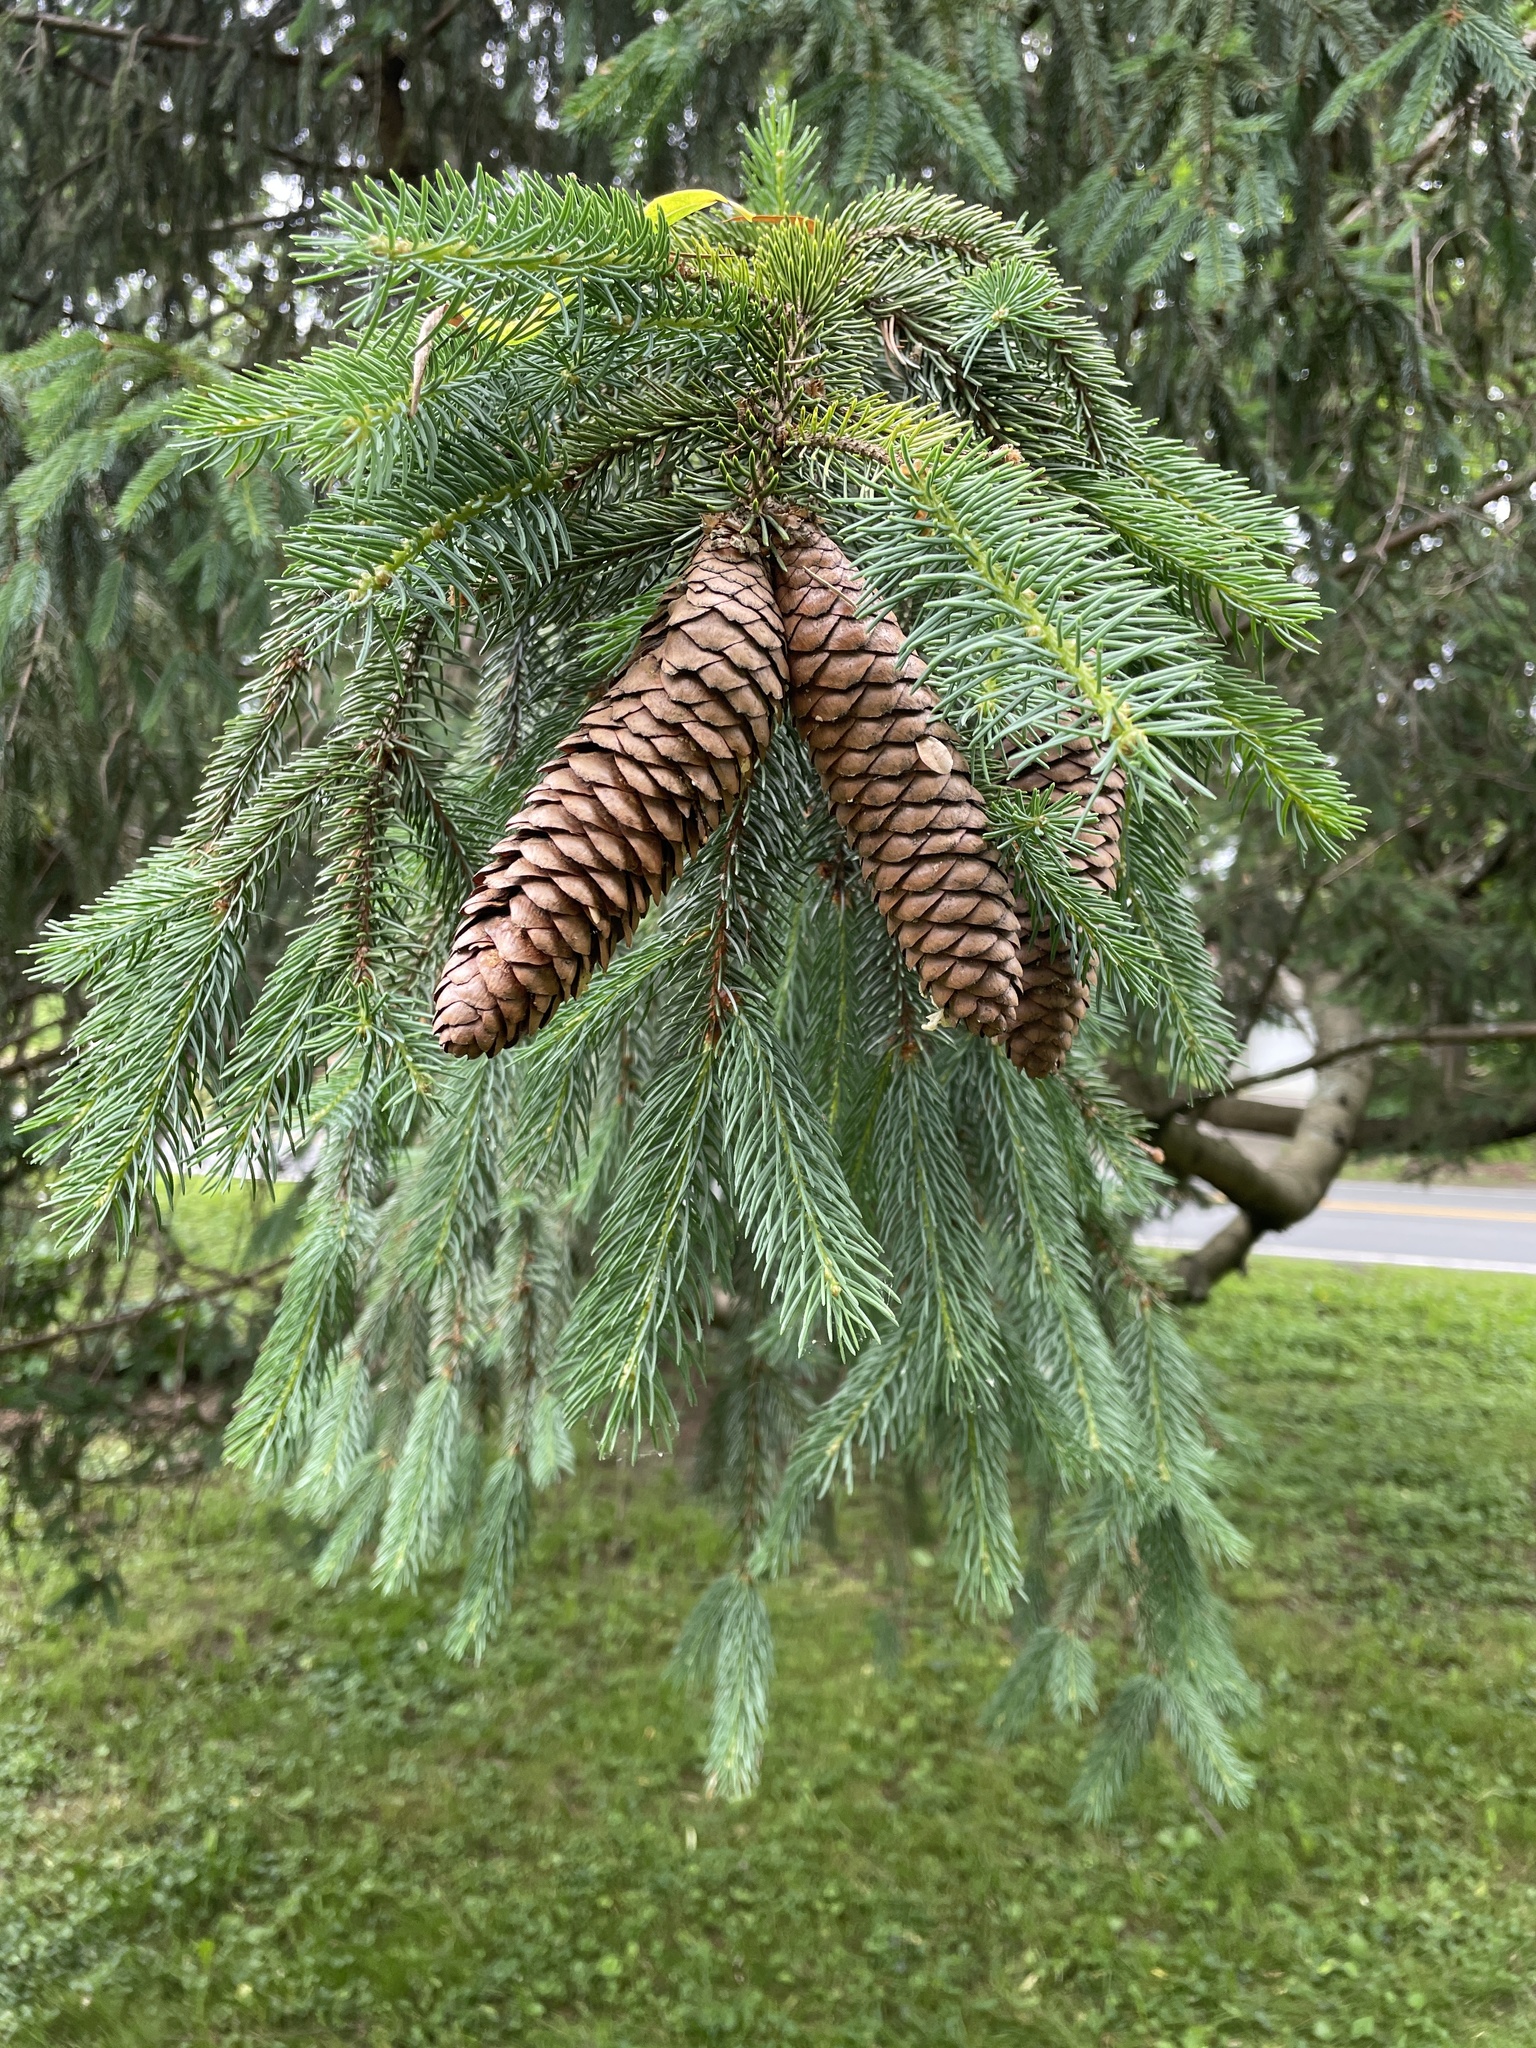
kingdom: Plantae
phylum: Tracheophyta
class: Pinopsida
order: Pinales
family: Pinaceae
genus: Picea
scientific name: Picea abies
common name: Norway spruce
